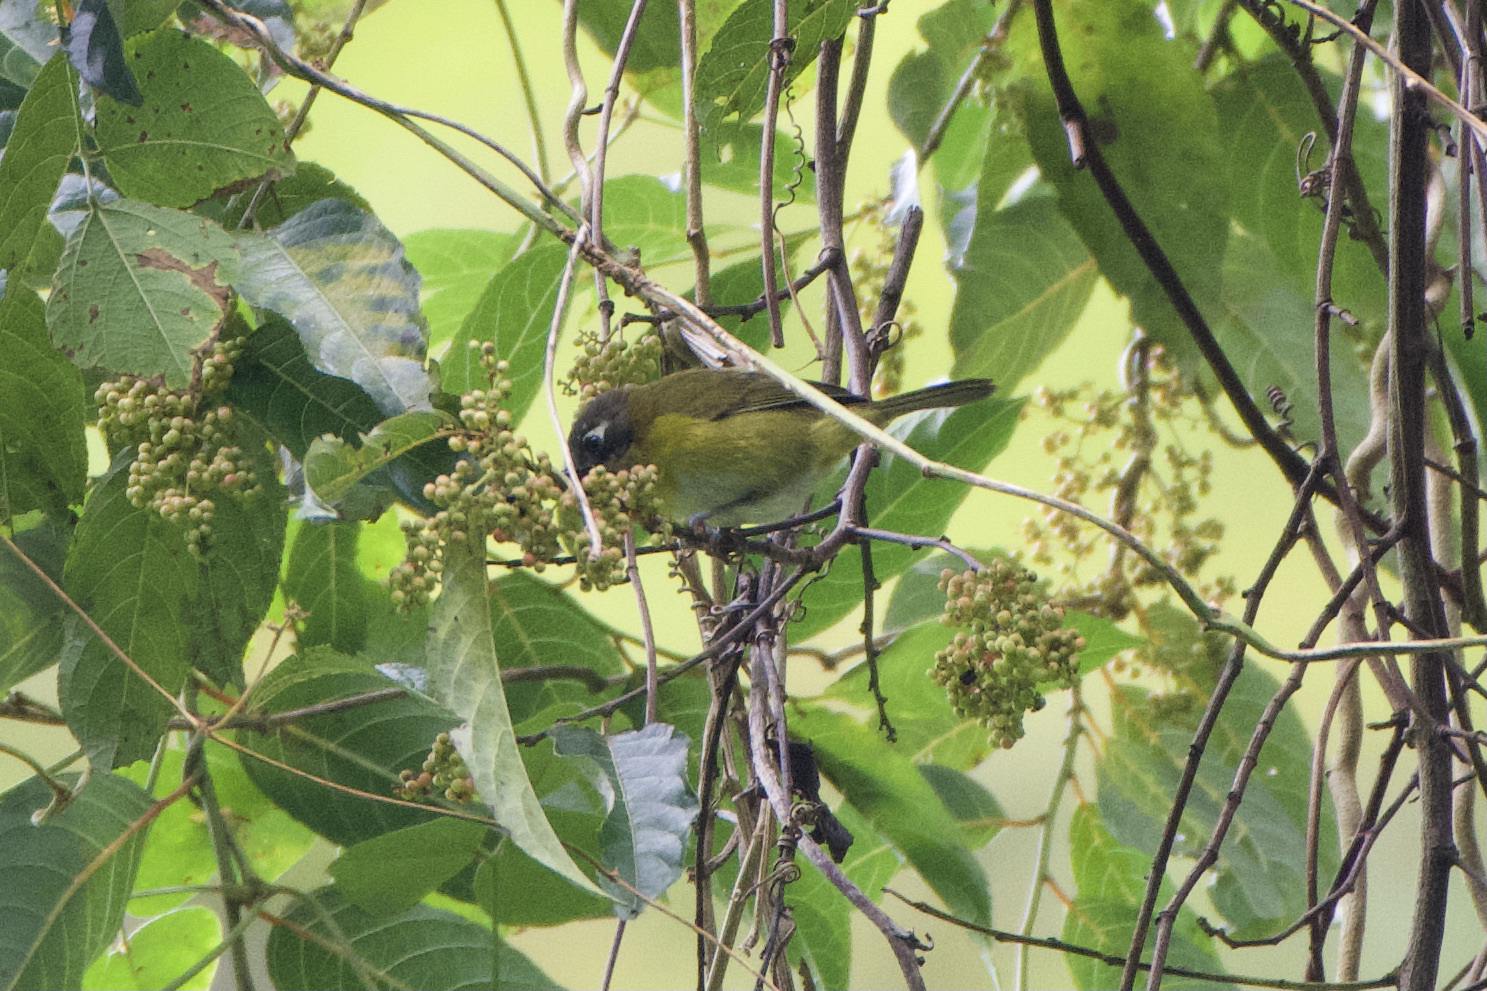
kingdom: Animalia
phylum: Chordata
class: Aves
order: Passeriformes
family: Passerellidae
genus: Chlorospingus
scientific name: Chlorospingus flavopectus
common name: Common chlorospingus
